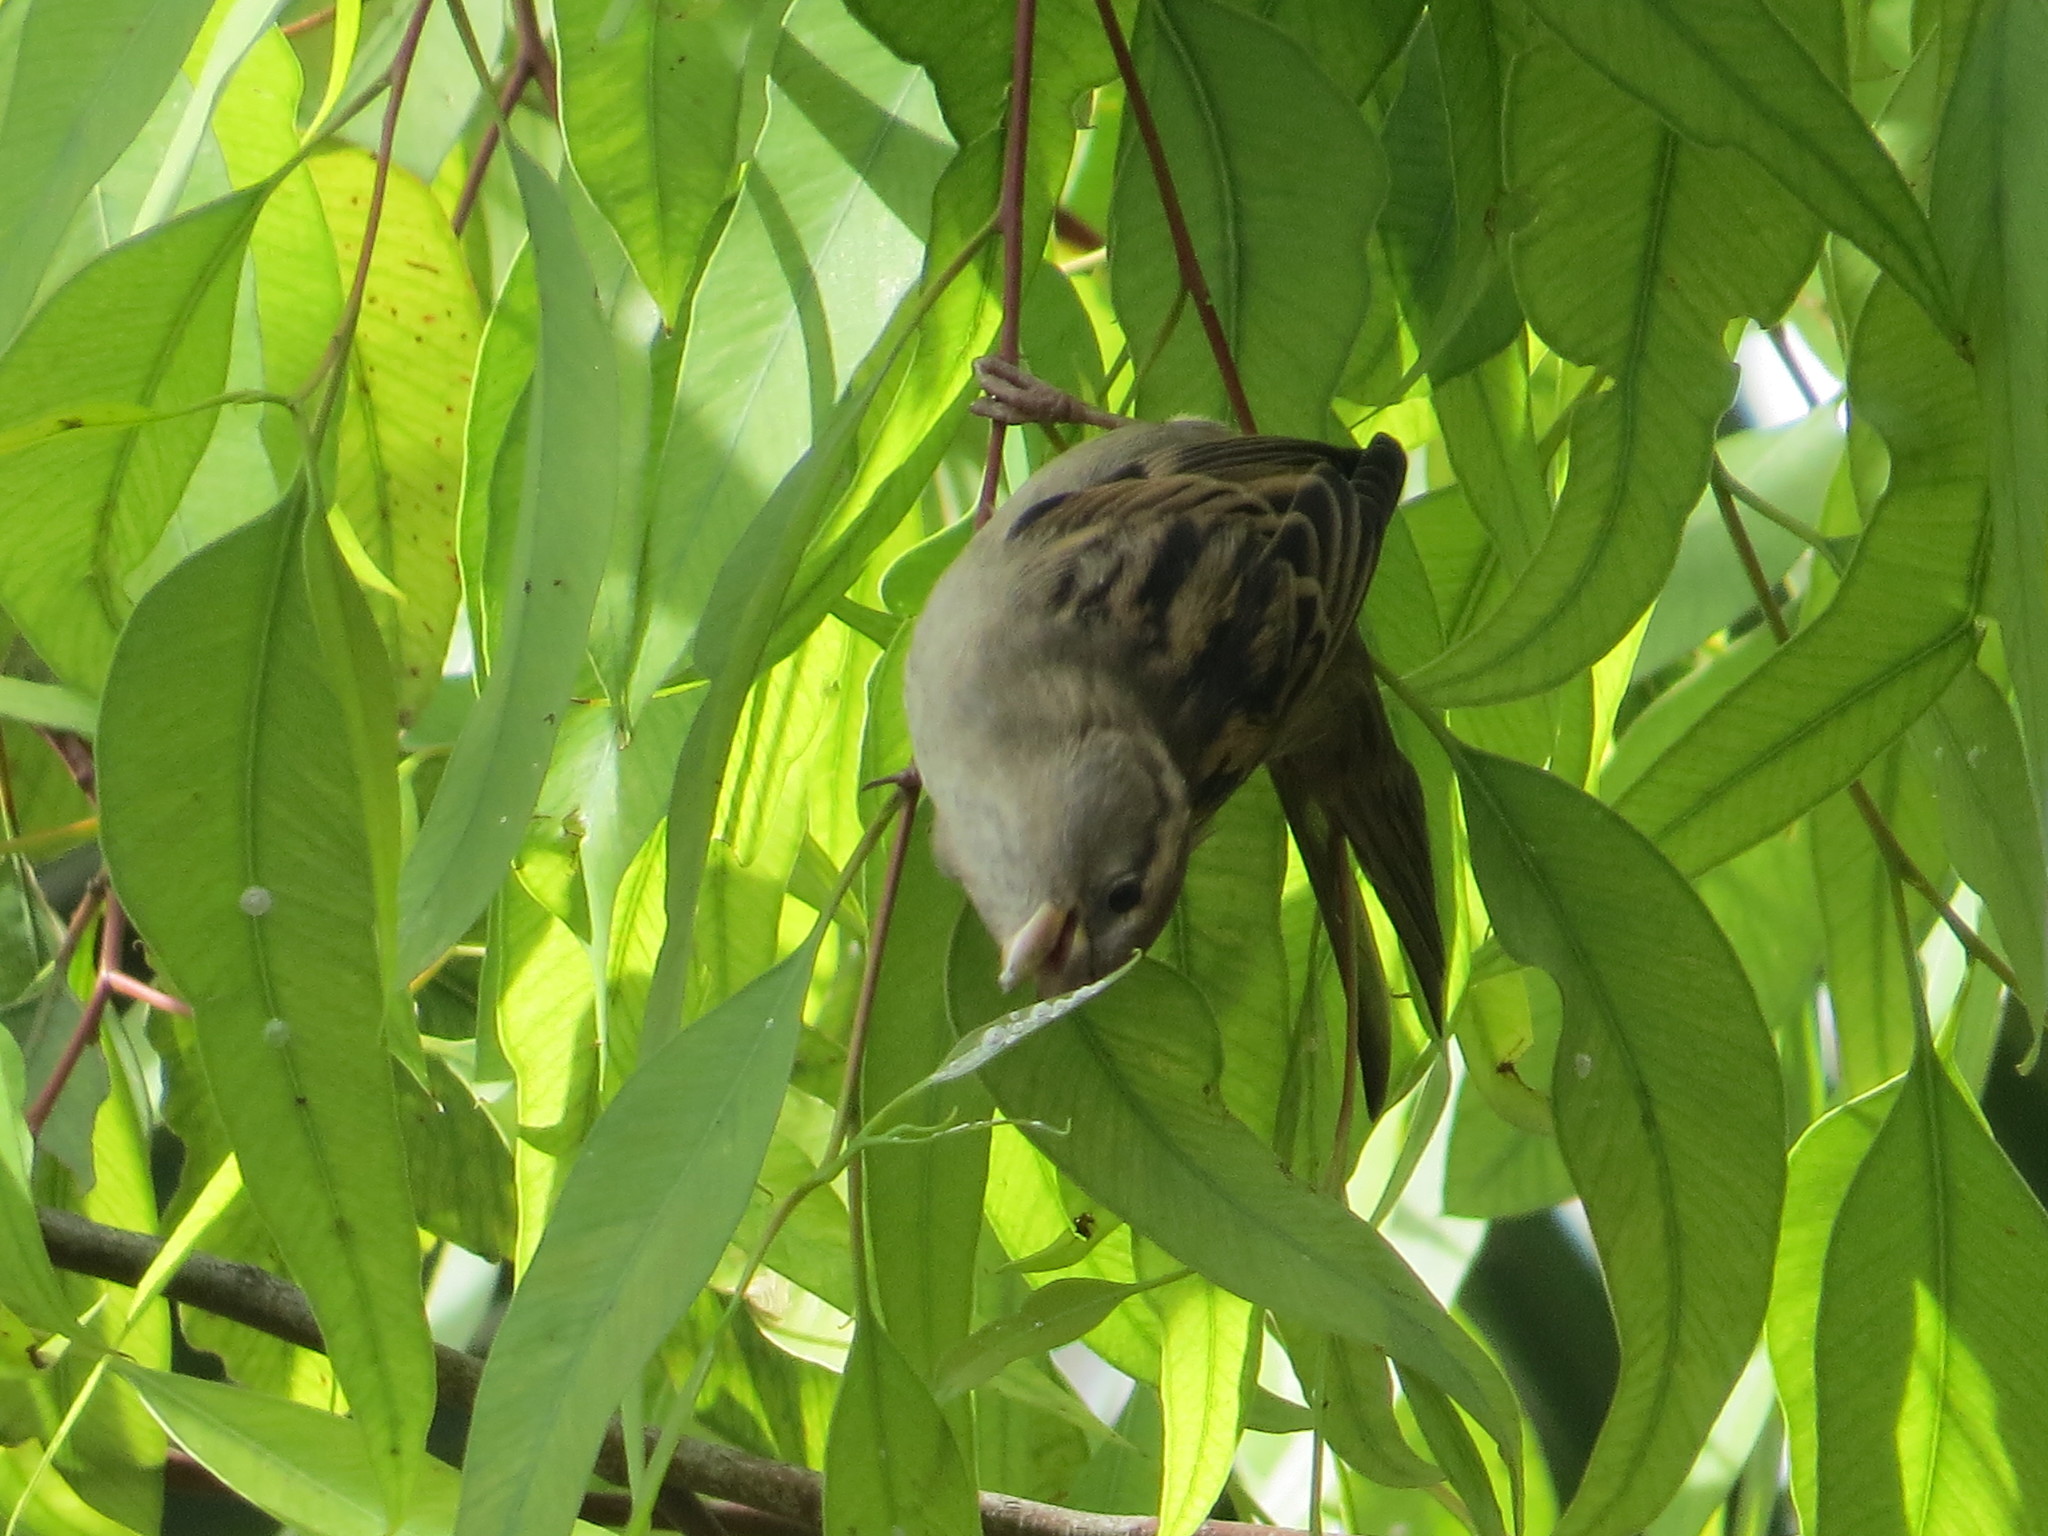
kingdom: Animalia
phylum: Chordata
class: Aves
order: Passeriformes
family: Passeridae
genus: Passer
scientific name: Passer domesticus
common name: House sparrow
